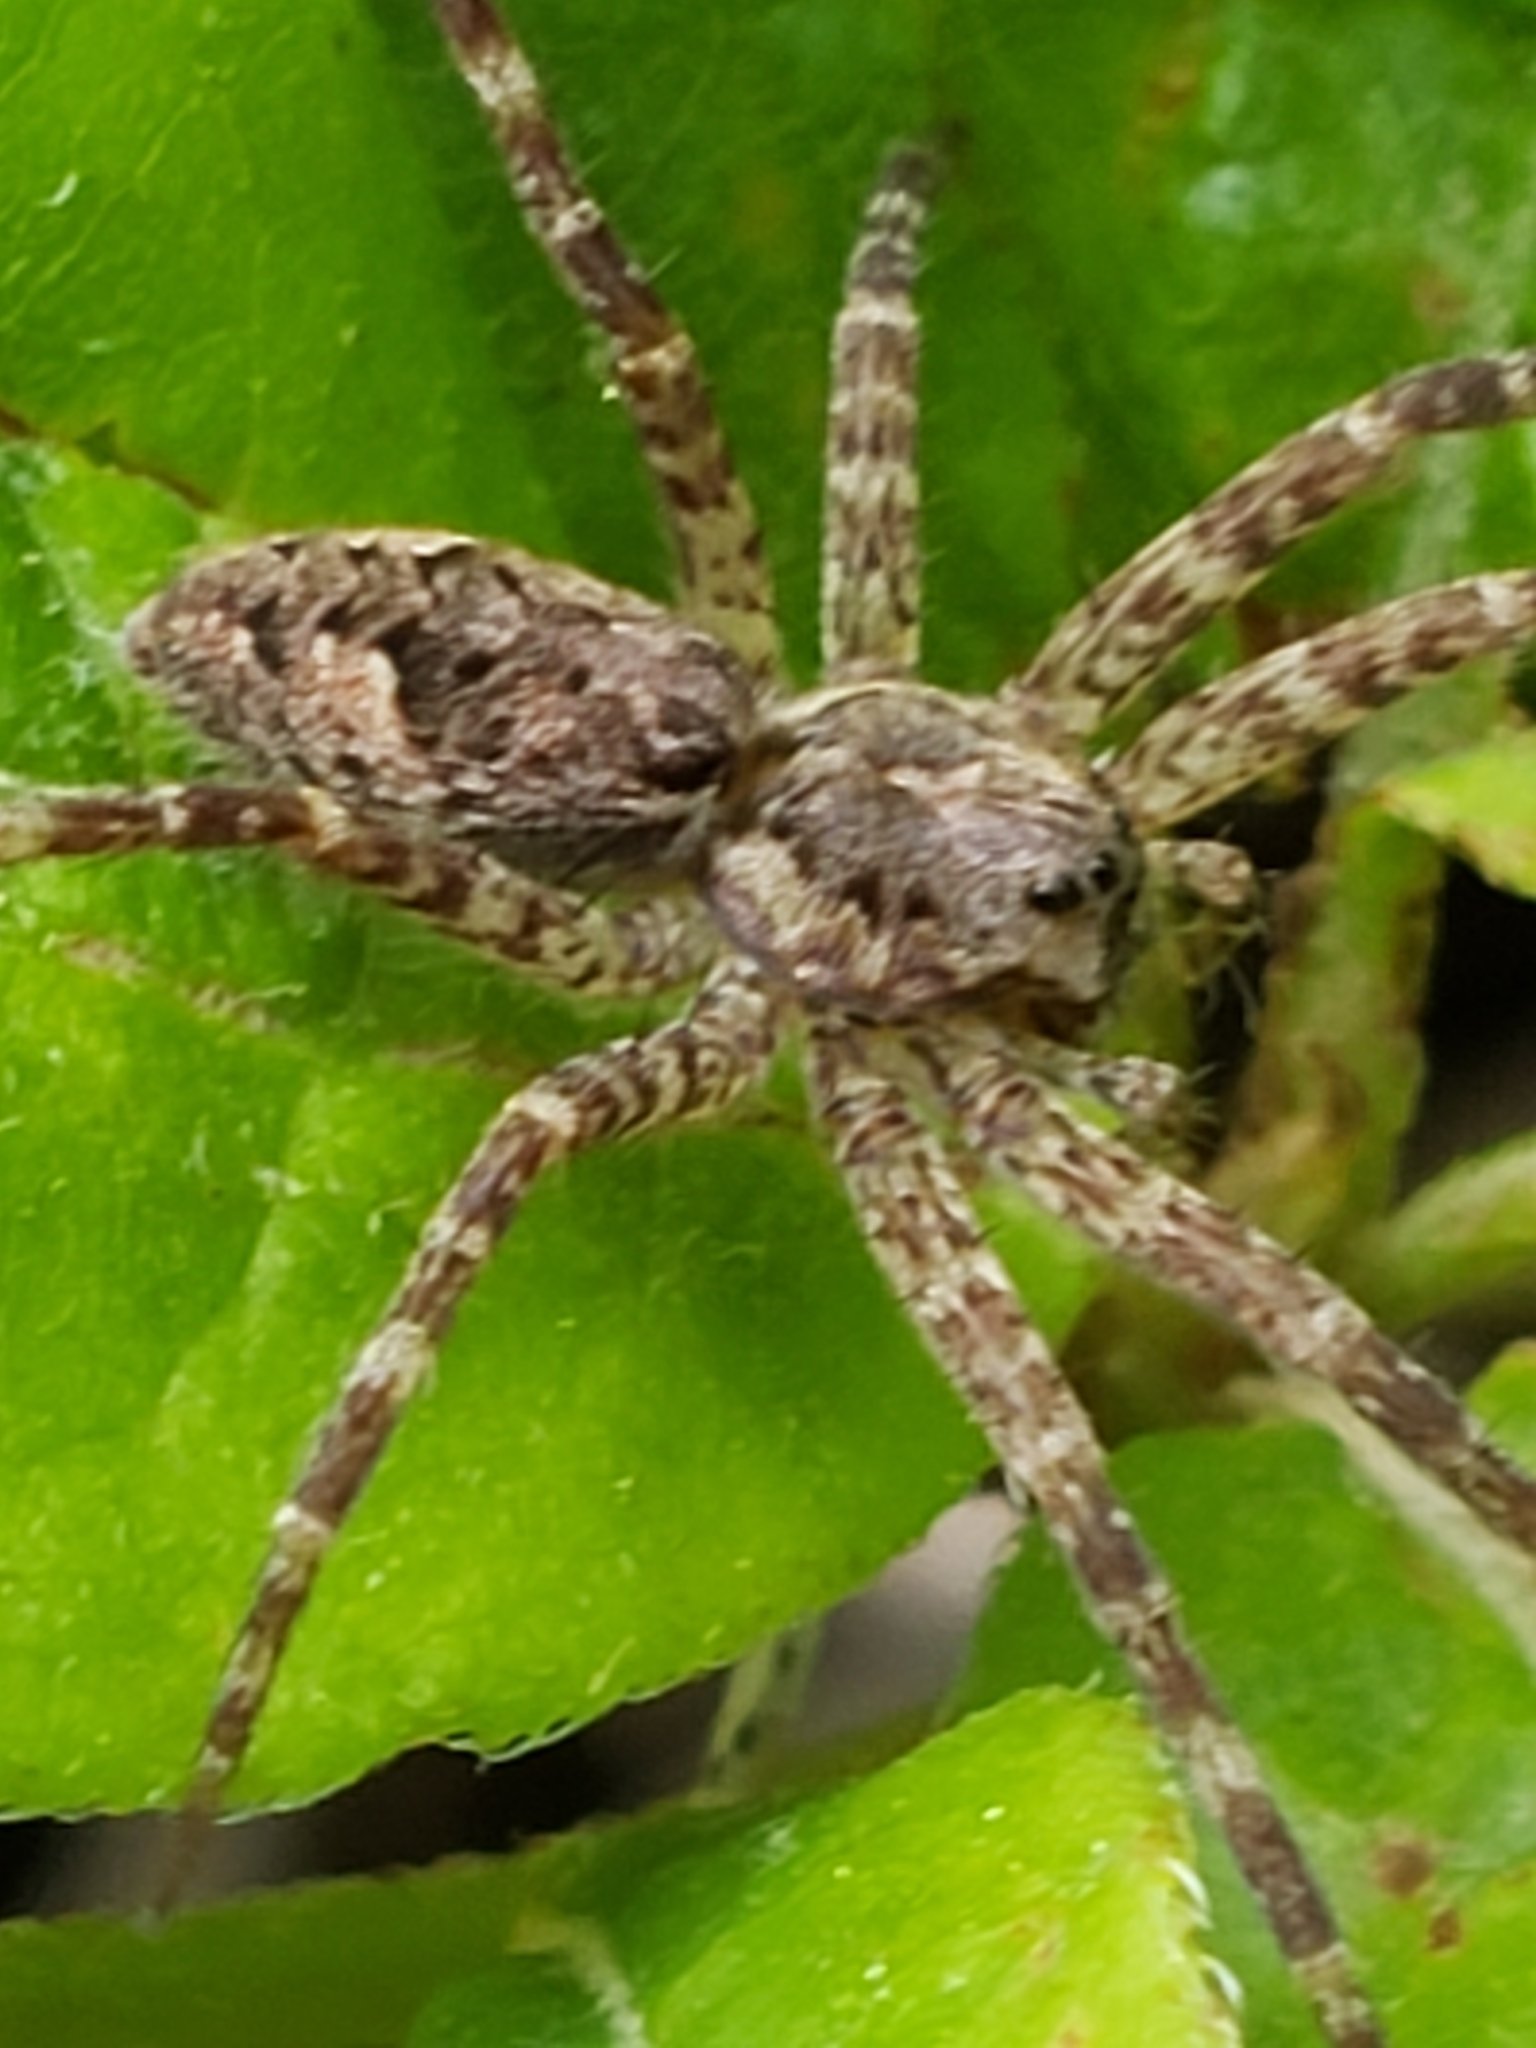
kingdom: Animalia
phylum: Arthropoda
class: Arachnida
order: Araneae
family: Pisauridae
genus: Dolomedes
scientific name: Dolomedes tenebrosus
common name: Dark fishing spider
